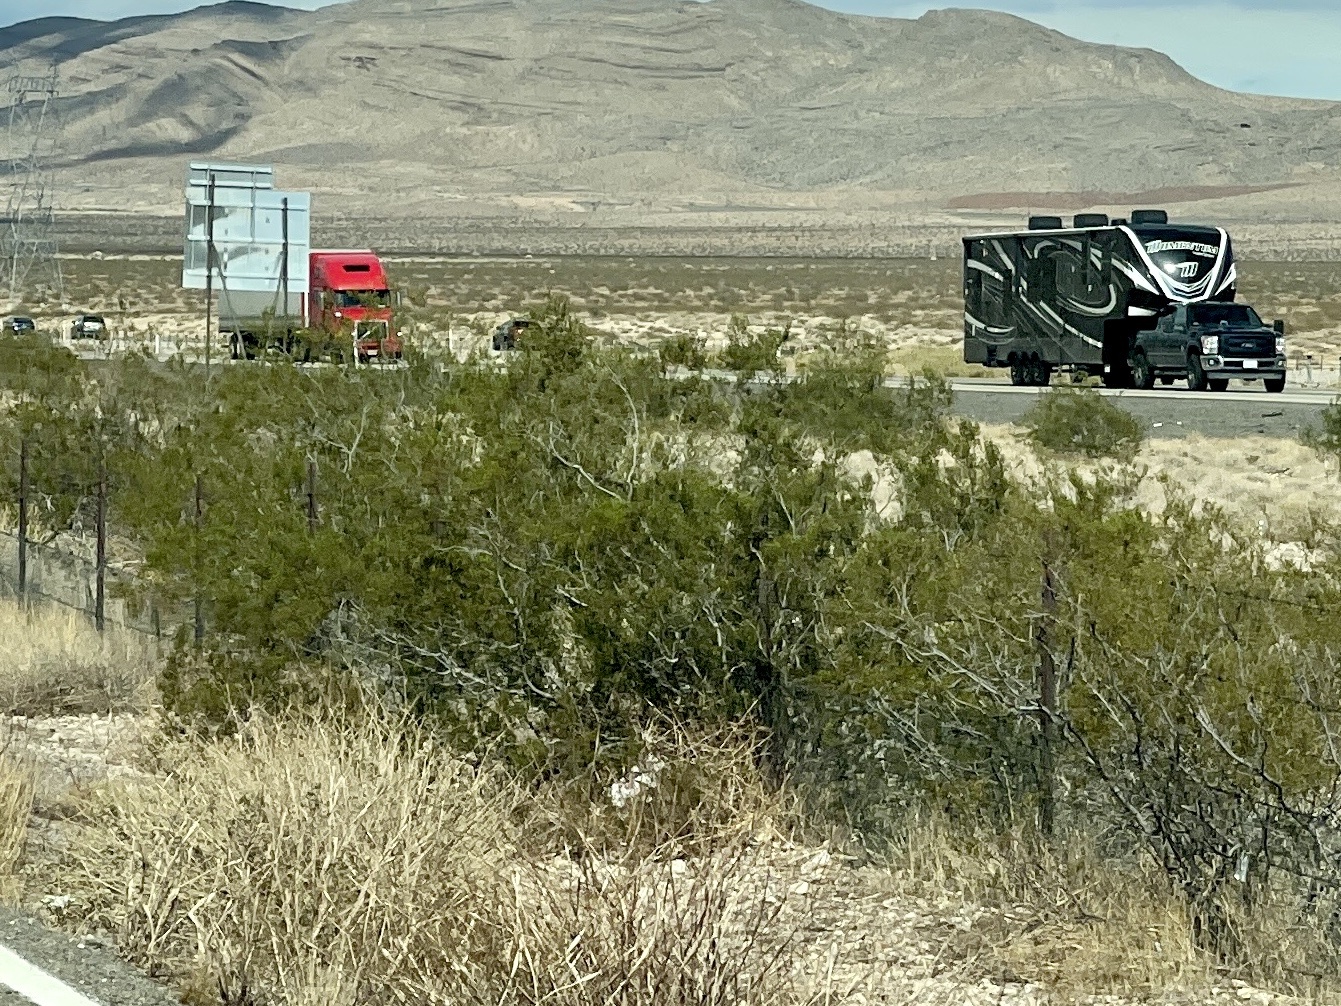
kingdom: Plantae
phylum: Tracheophyta
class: Magnoliopsida
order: Zygophyllales
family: Zygophyllaceae
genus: Larrea
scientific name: Larrea tridentata
